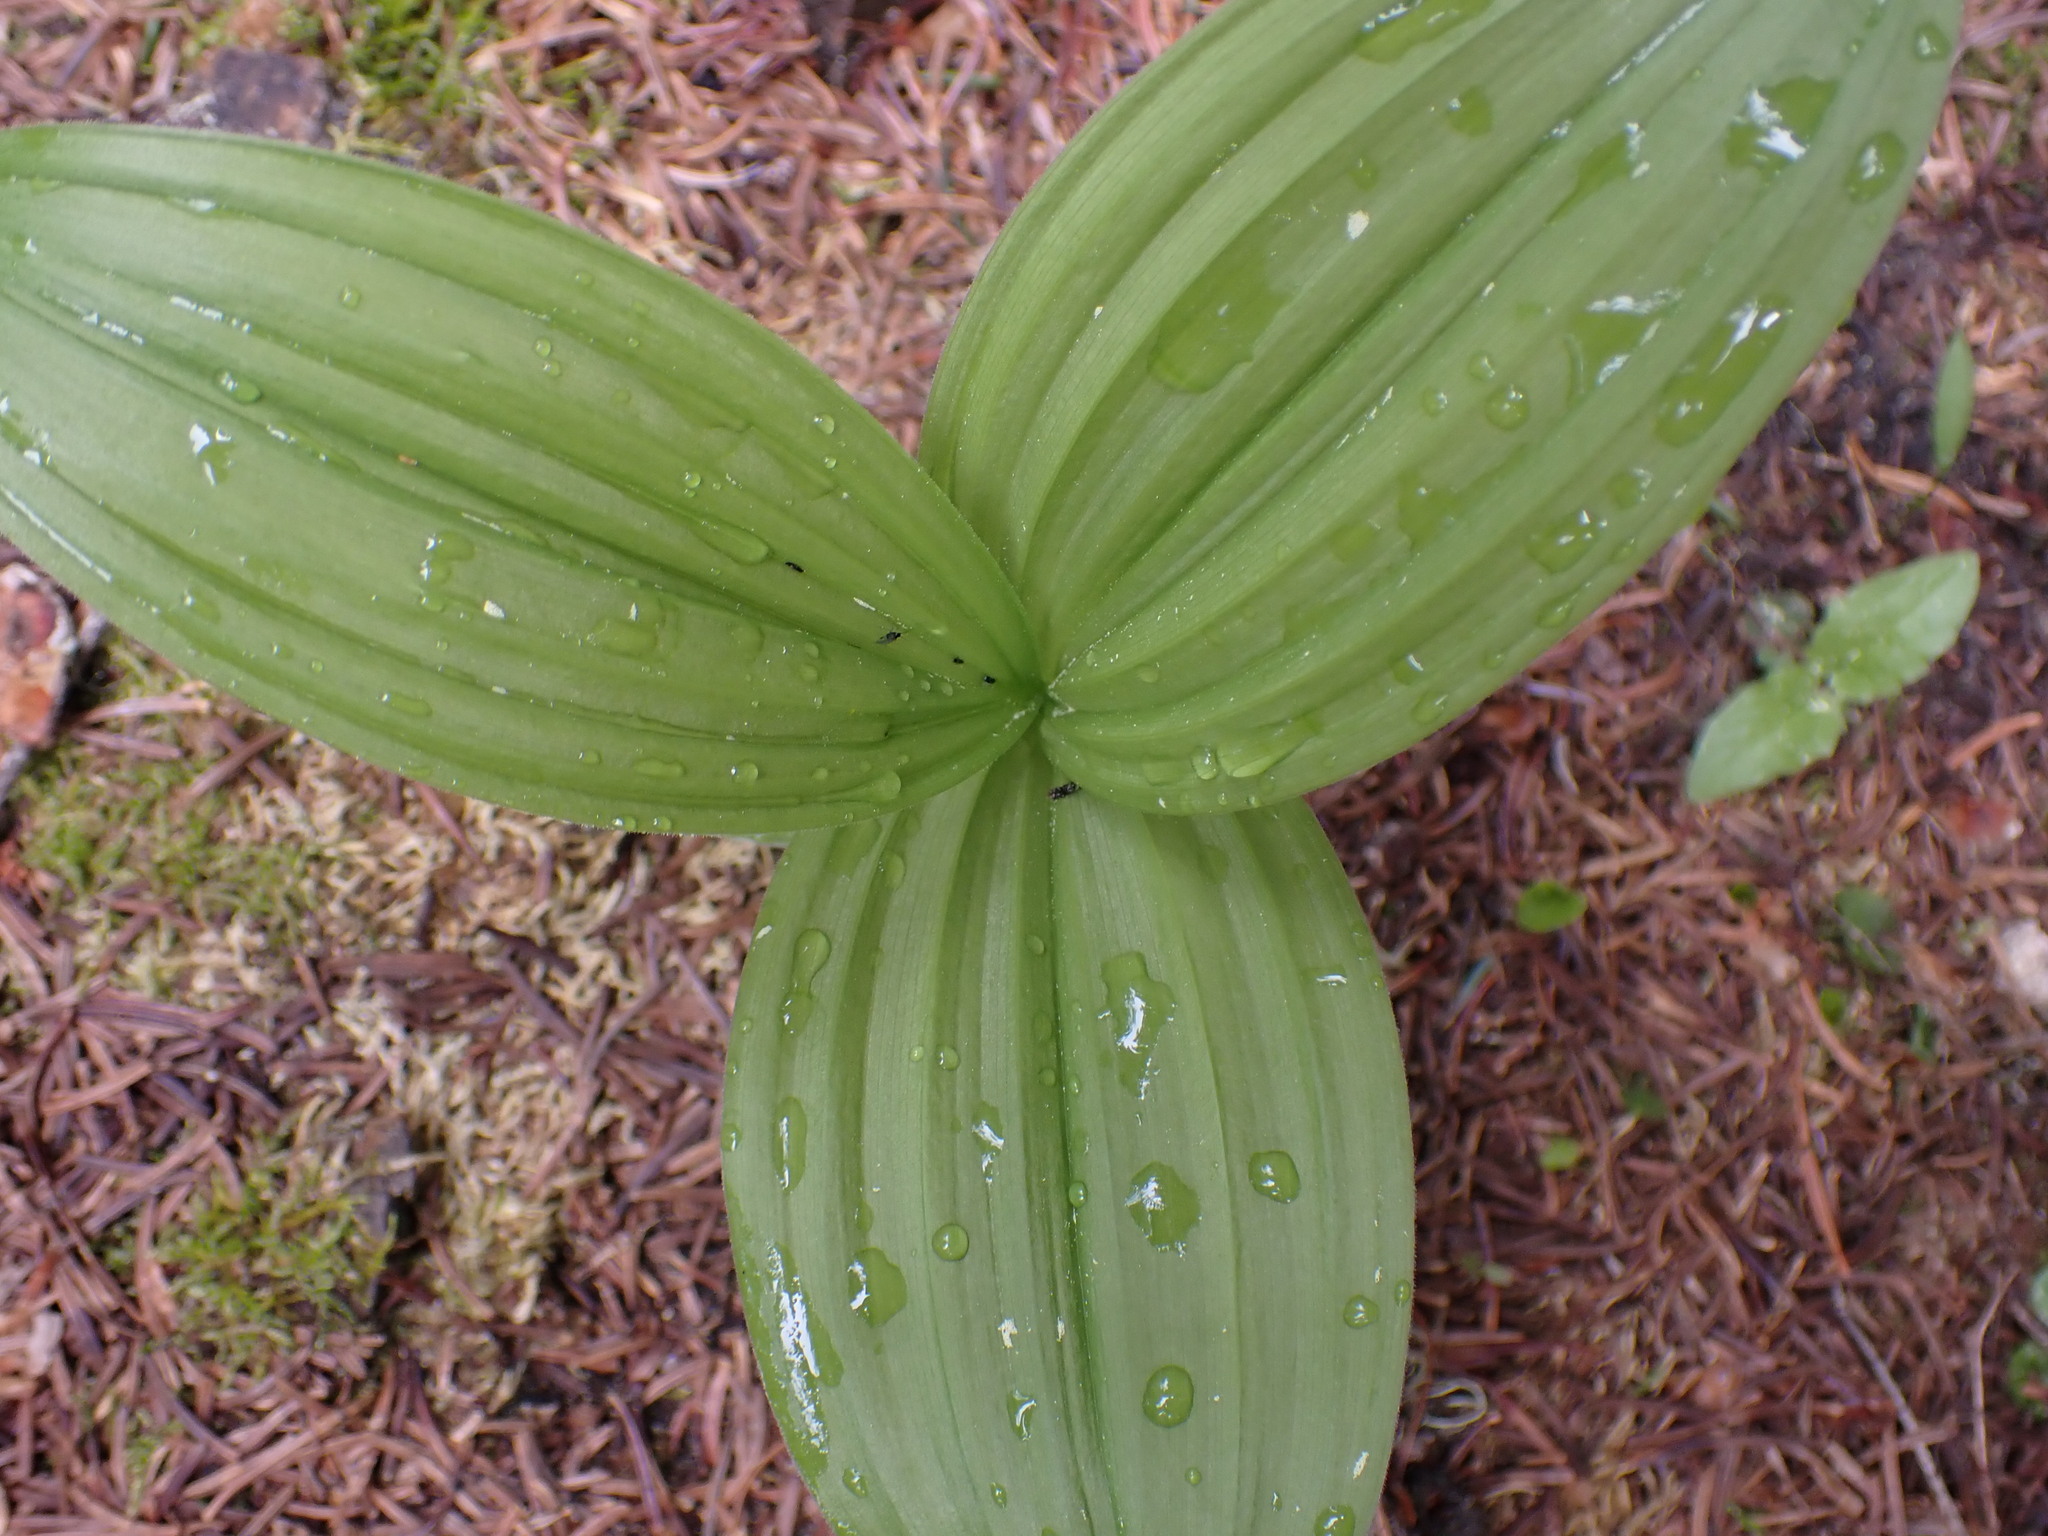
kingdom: Plantae
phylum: Tracheophyta
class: Liliopsida
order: Liliales
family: Melanthiaceae
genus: Veratrum
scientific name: Veratrum viride
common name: American false hellebore
